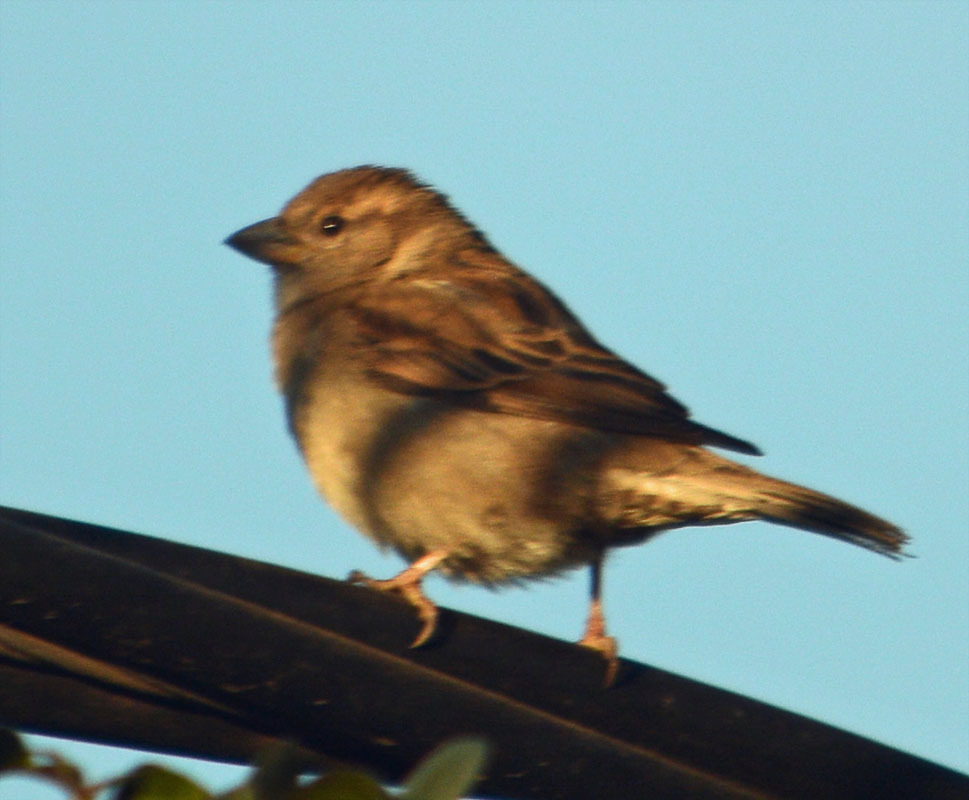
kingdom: Animalia
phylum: Chordata
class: Aves
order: Passeriformes
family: Passeridae
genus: Passer
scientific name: Passer domesticus
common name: House sparrow
